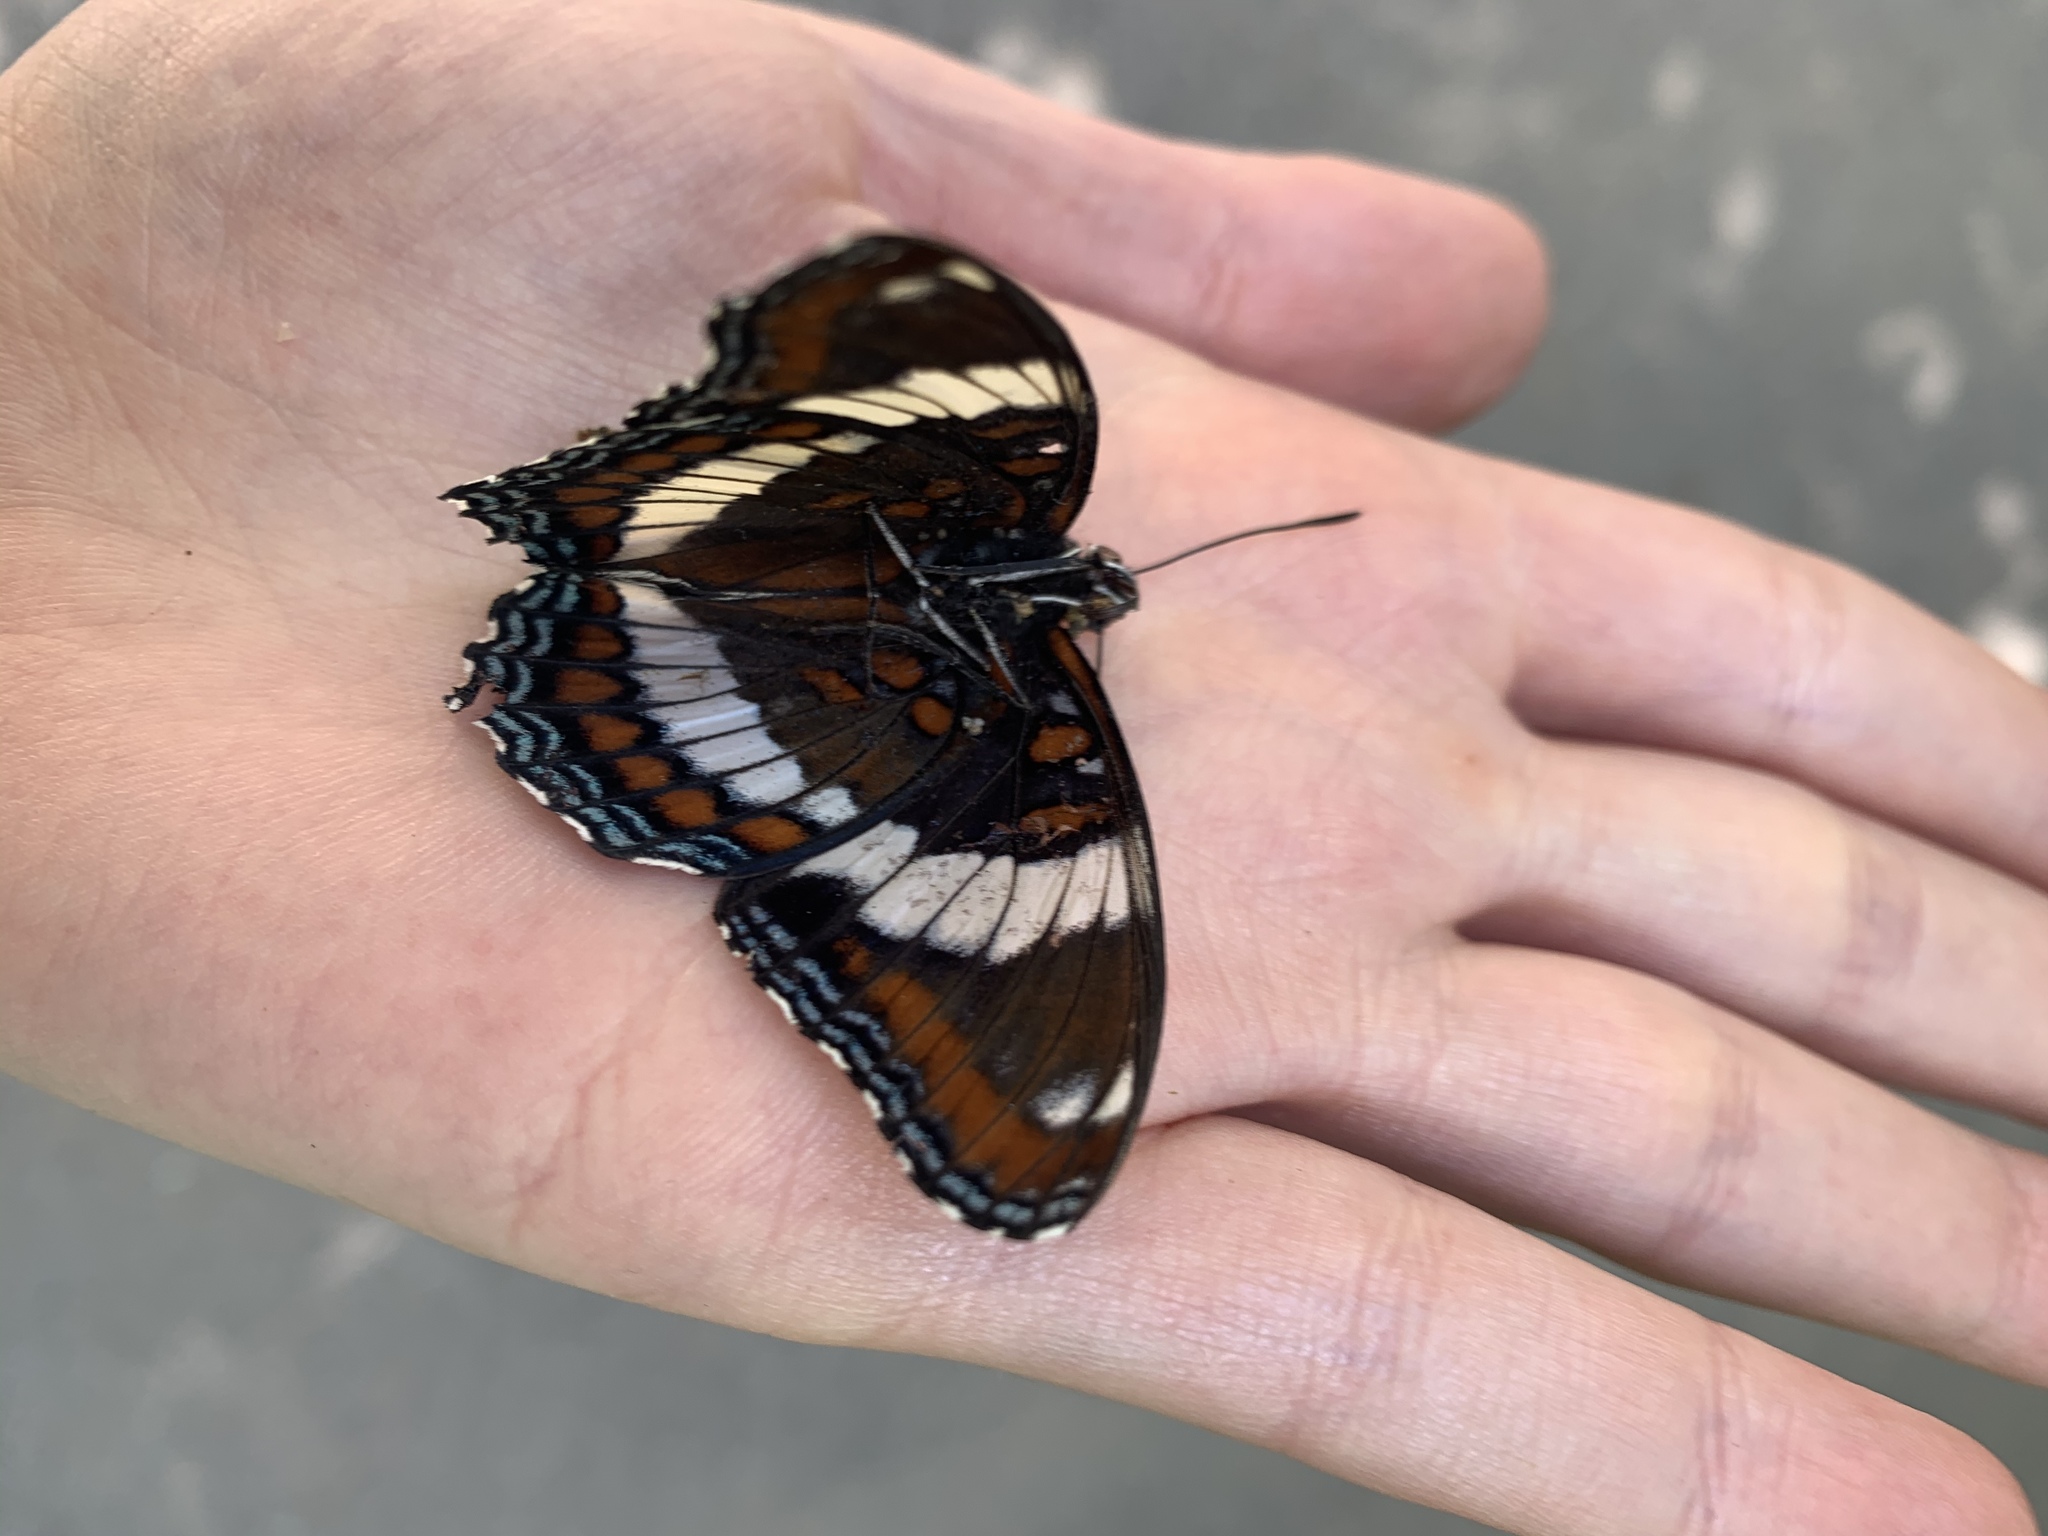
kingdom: Animalia
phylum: Arthropoda
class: Insecta
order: Lepidoptera
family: Nymphalidae
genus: Limenitis
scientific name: Limenitis arthemis
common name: Red-spotted admiral
